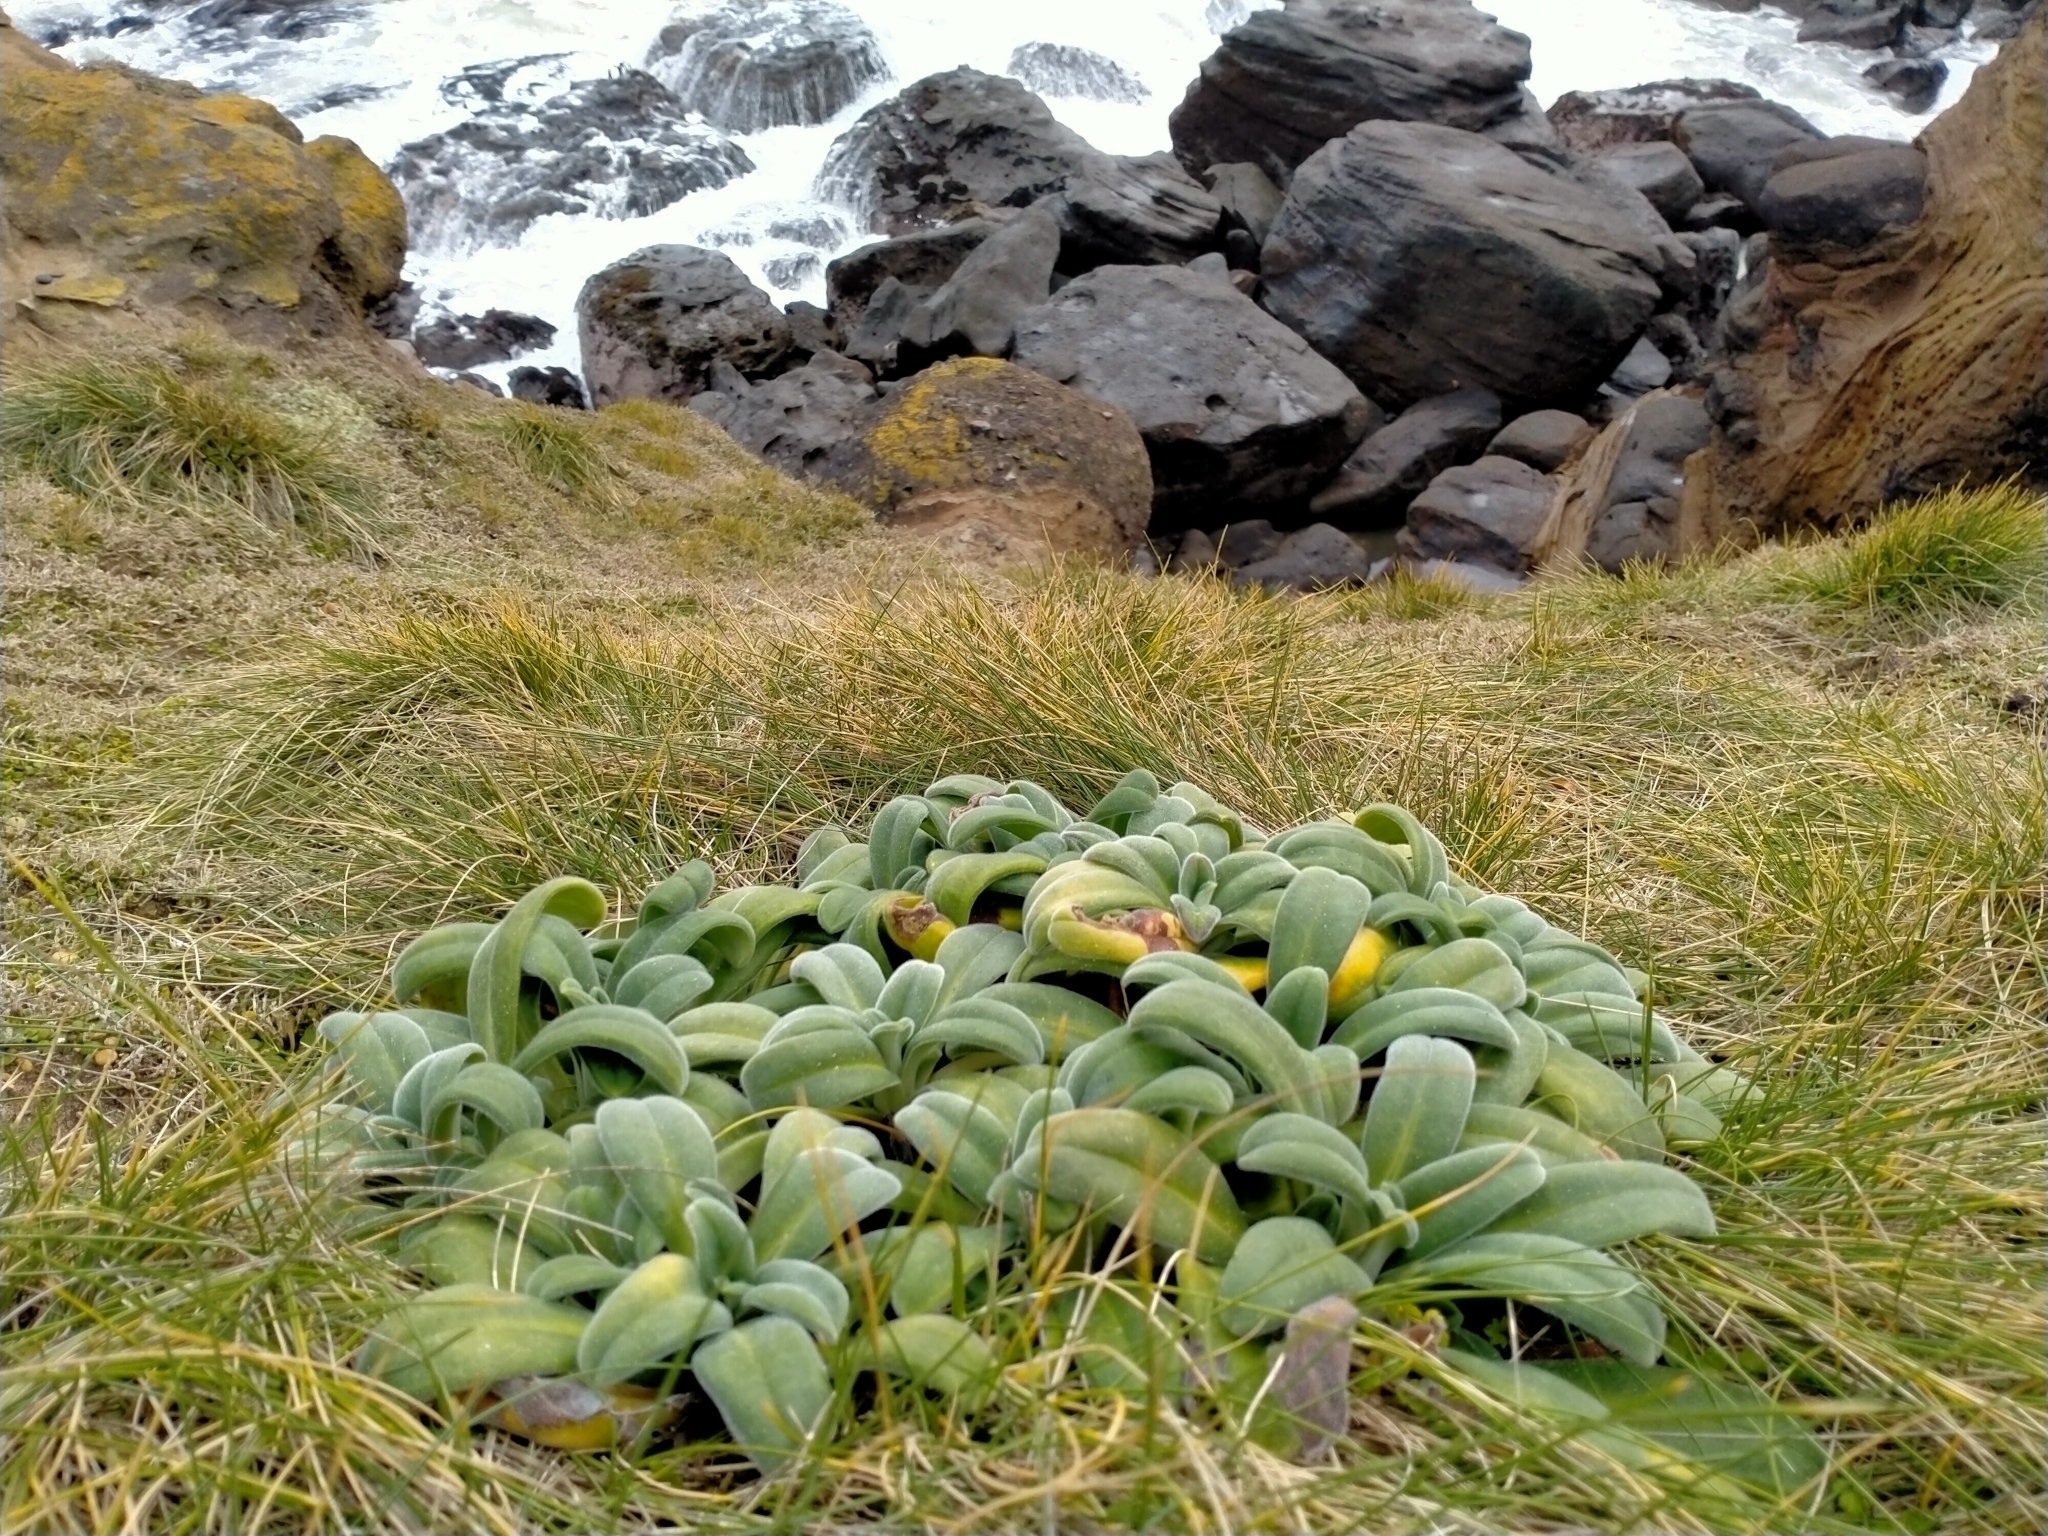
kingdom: Plantae
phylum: Tracheophyta
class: Magnoliopsida
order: Boraginales
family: Boraginaceae
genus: Myosotis
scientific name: Myosotis rakiura
